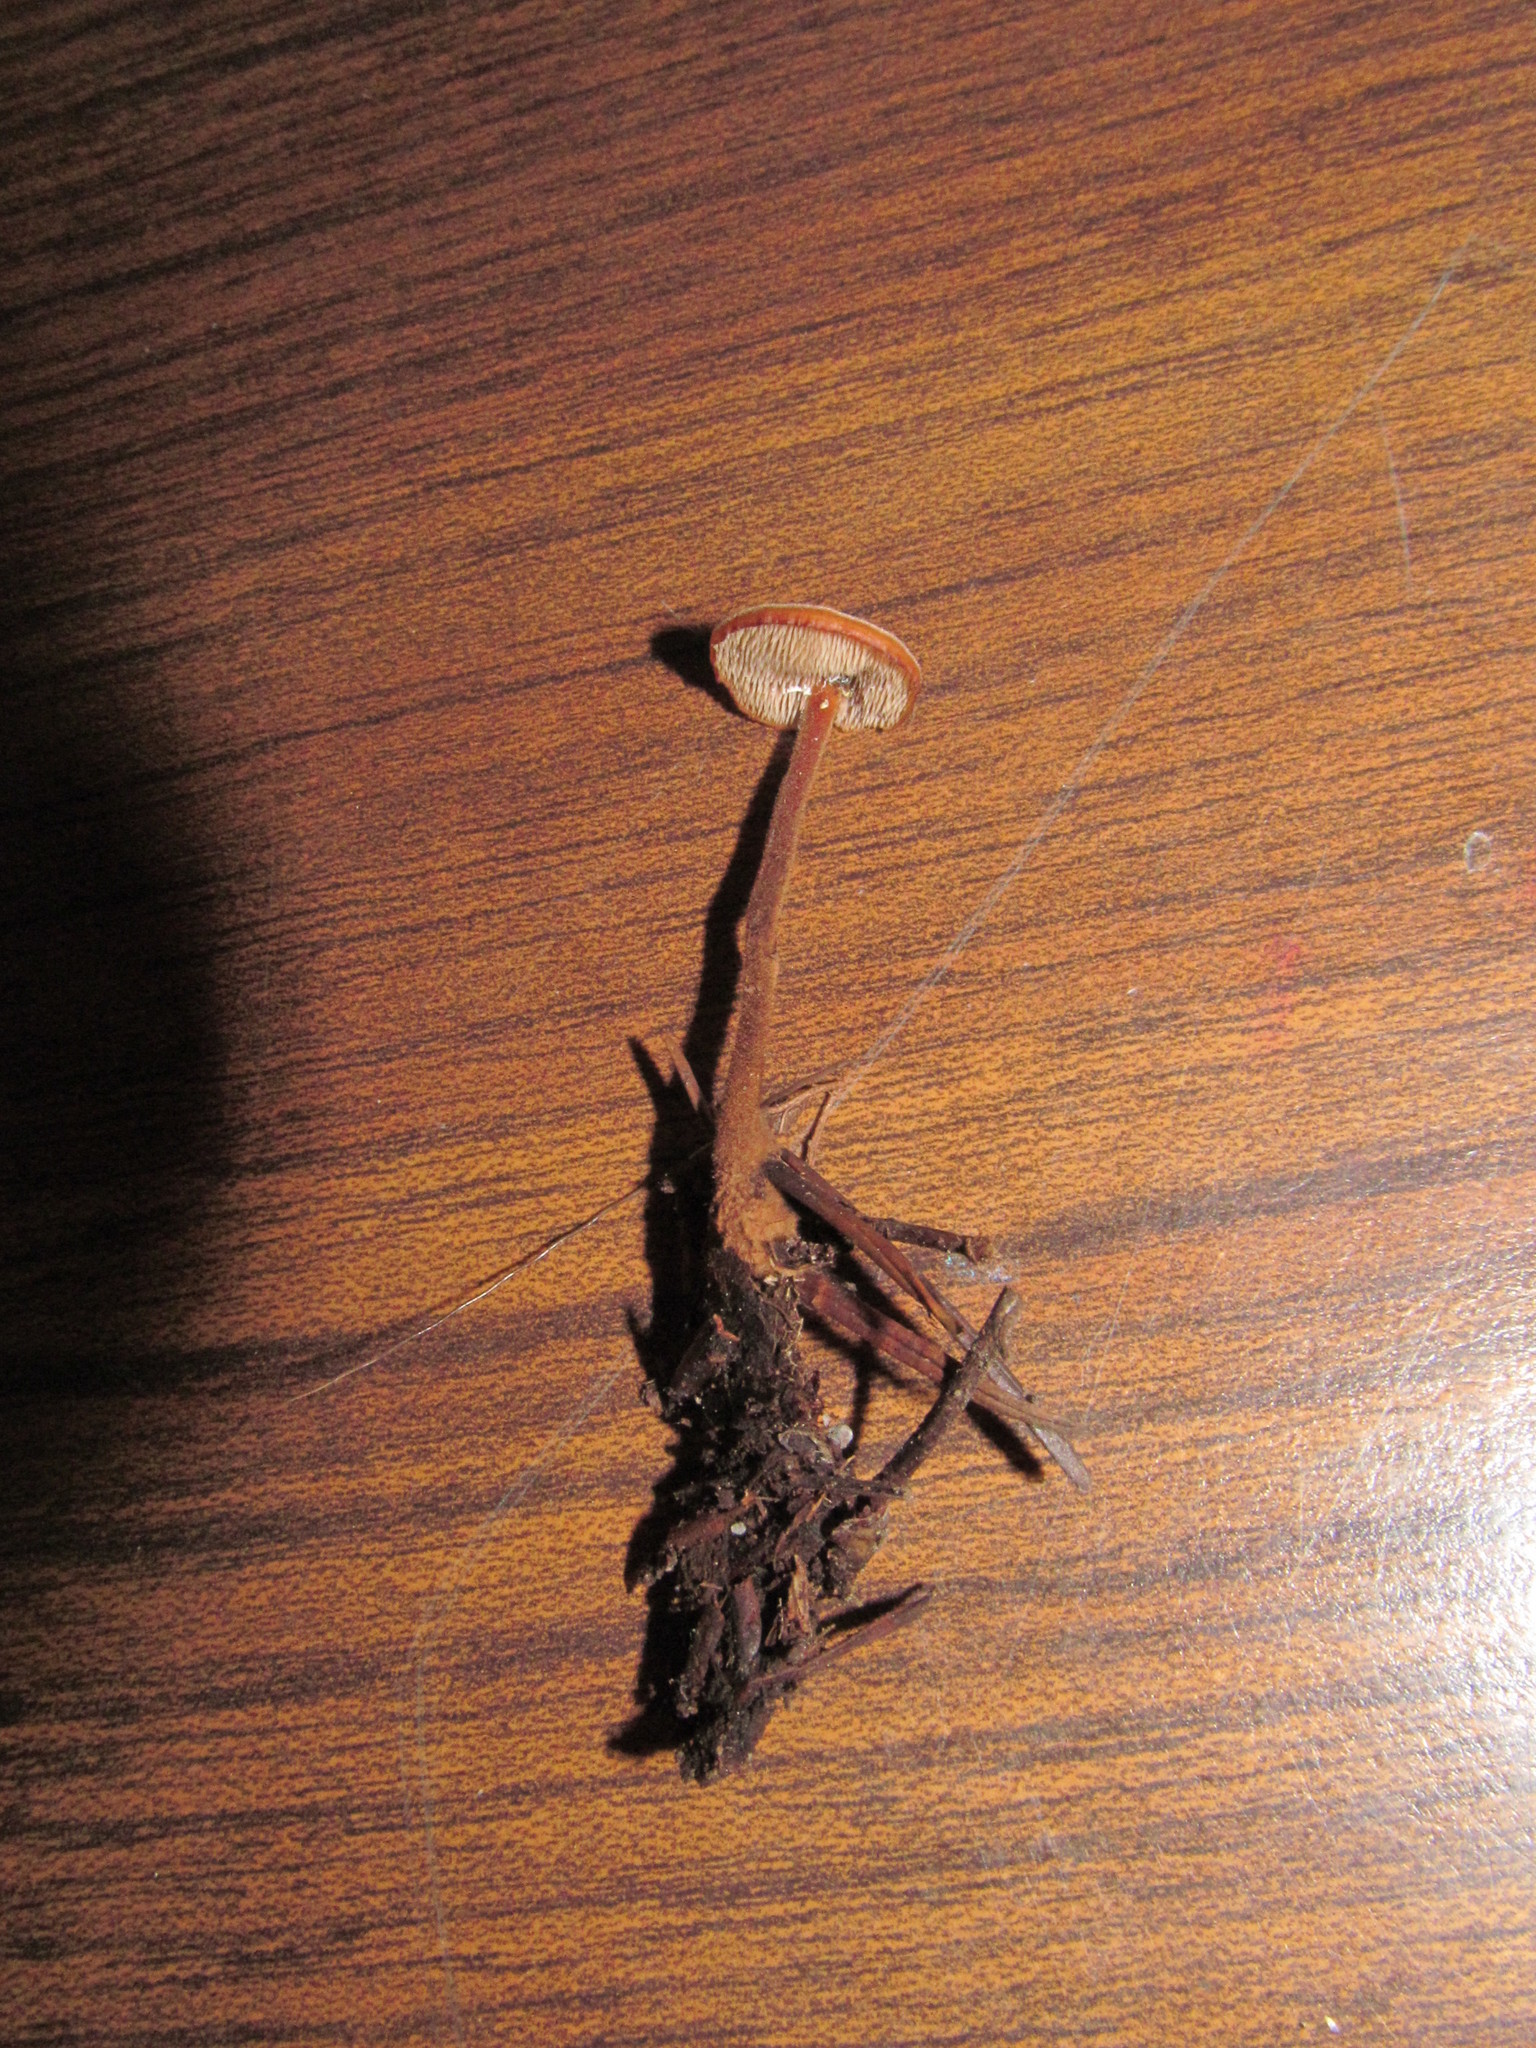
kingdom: Fungi
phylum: Basidiomycota
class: Agaricomycetes
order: Russulales
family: Auriscalpiaceae
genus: Auriscalpium
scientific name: Auriscalpium vulgare
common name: Earpick fungus
